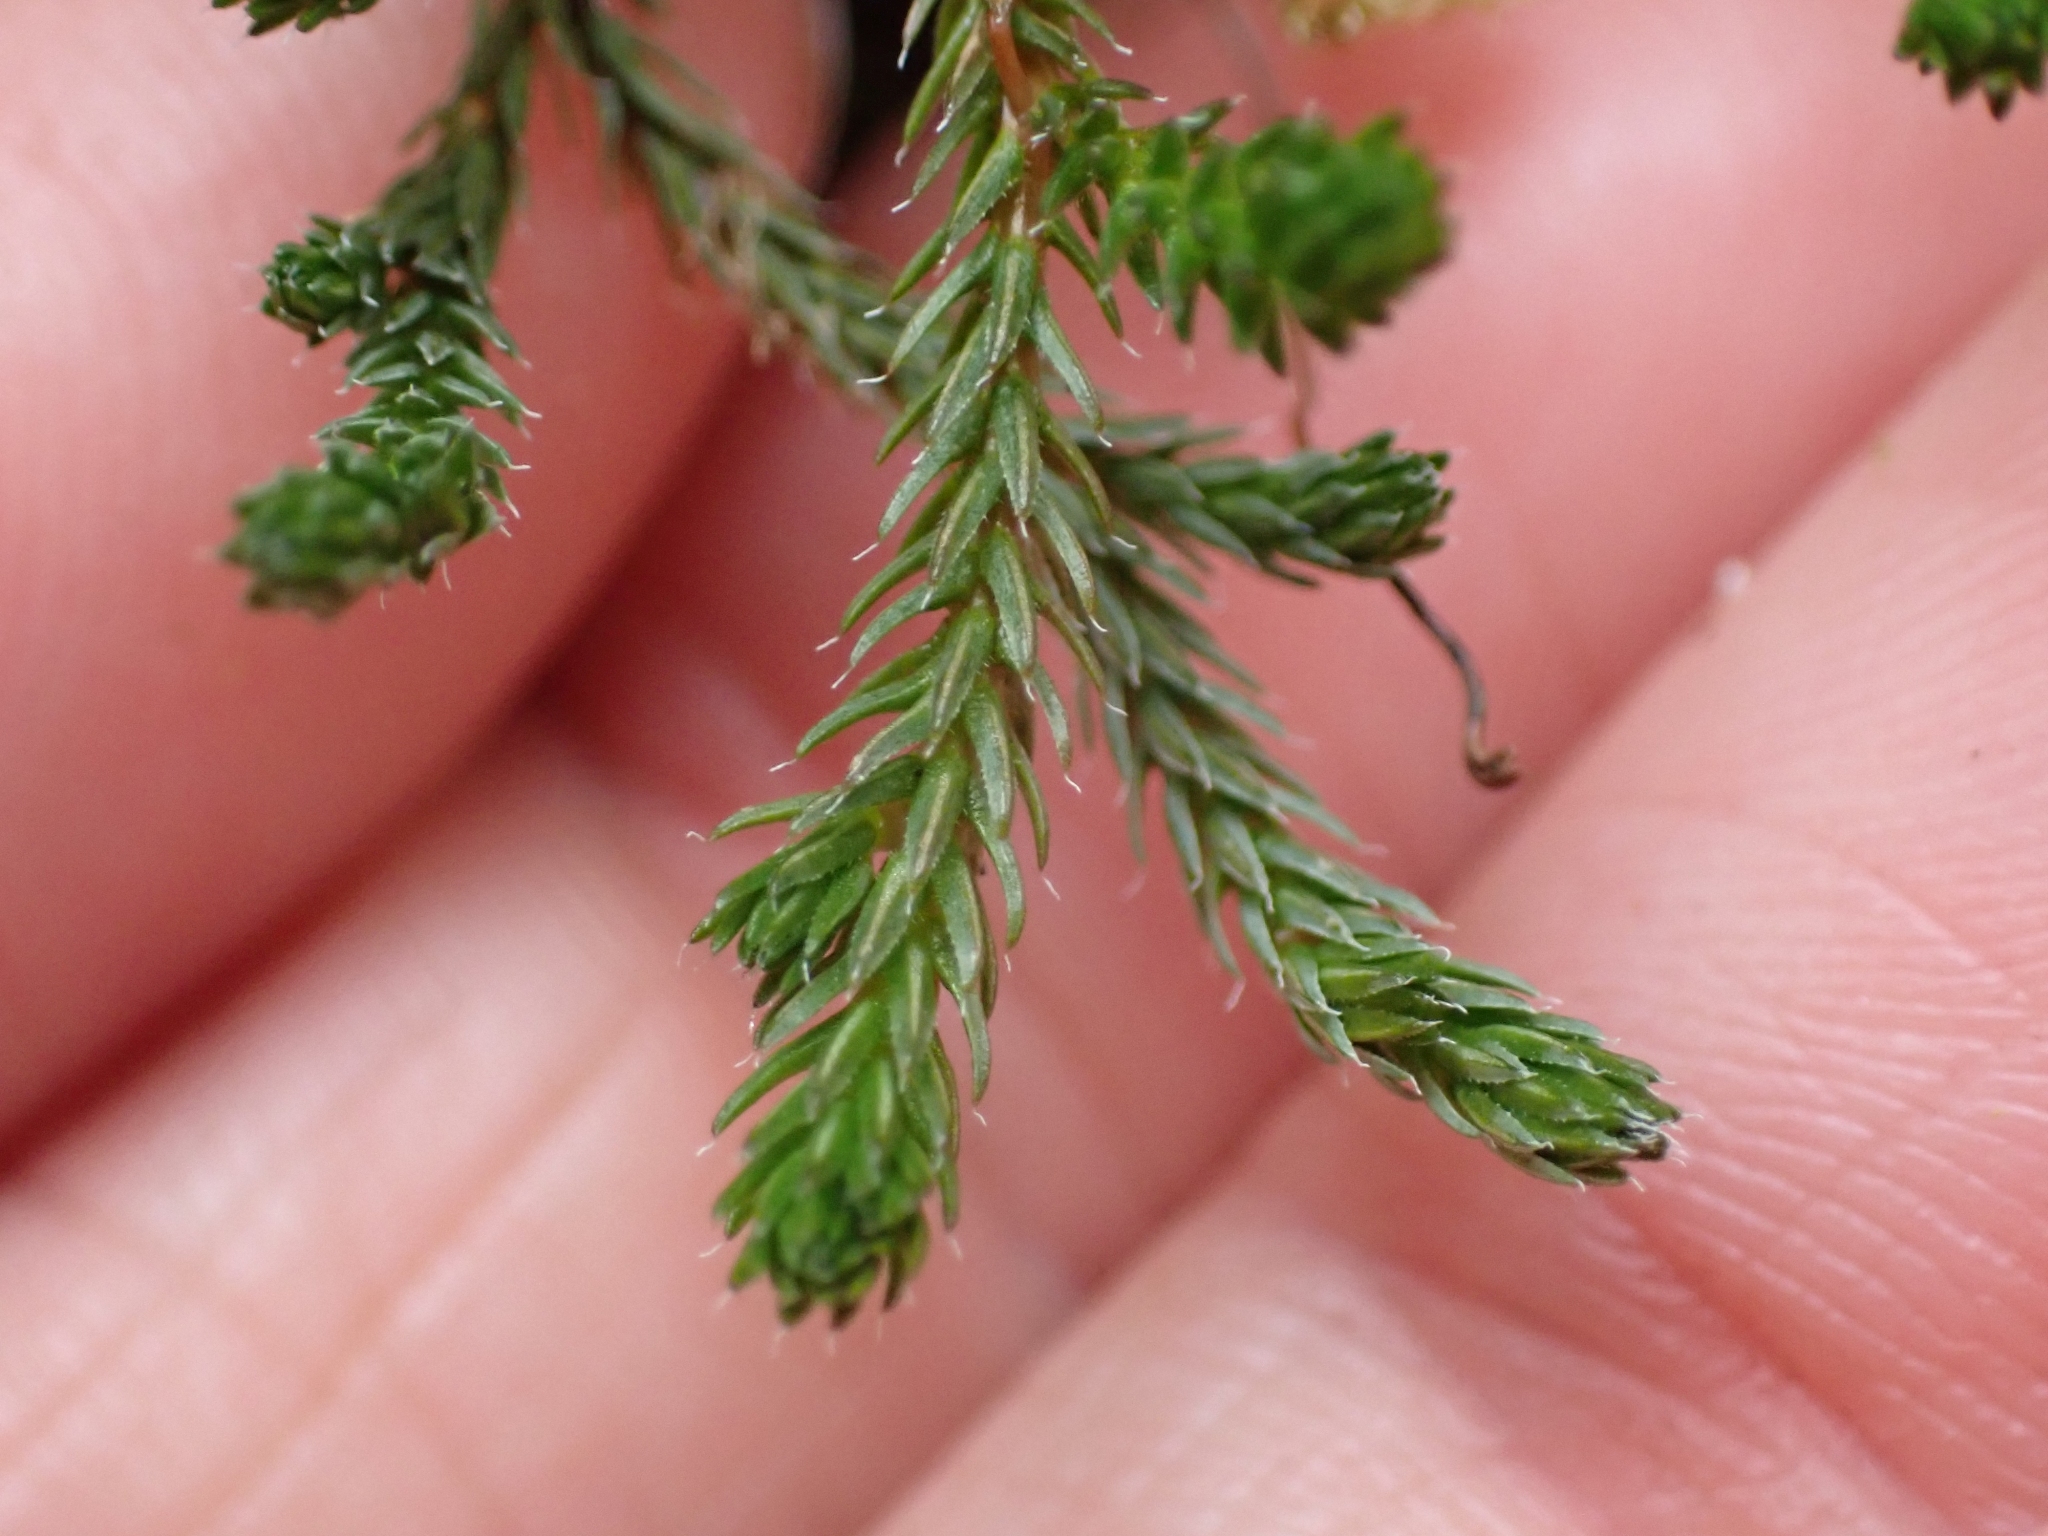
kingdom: Plantae
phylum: Tracheophyta
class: Lycopodiopsida
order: Selaginellales
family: Selaginellaceae
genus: Selaginella
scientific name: Selaginella wallacei
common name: Wallace's selaginella
